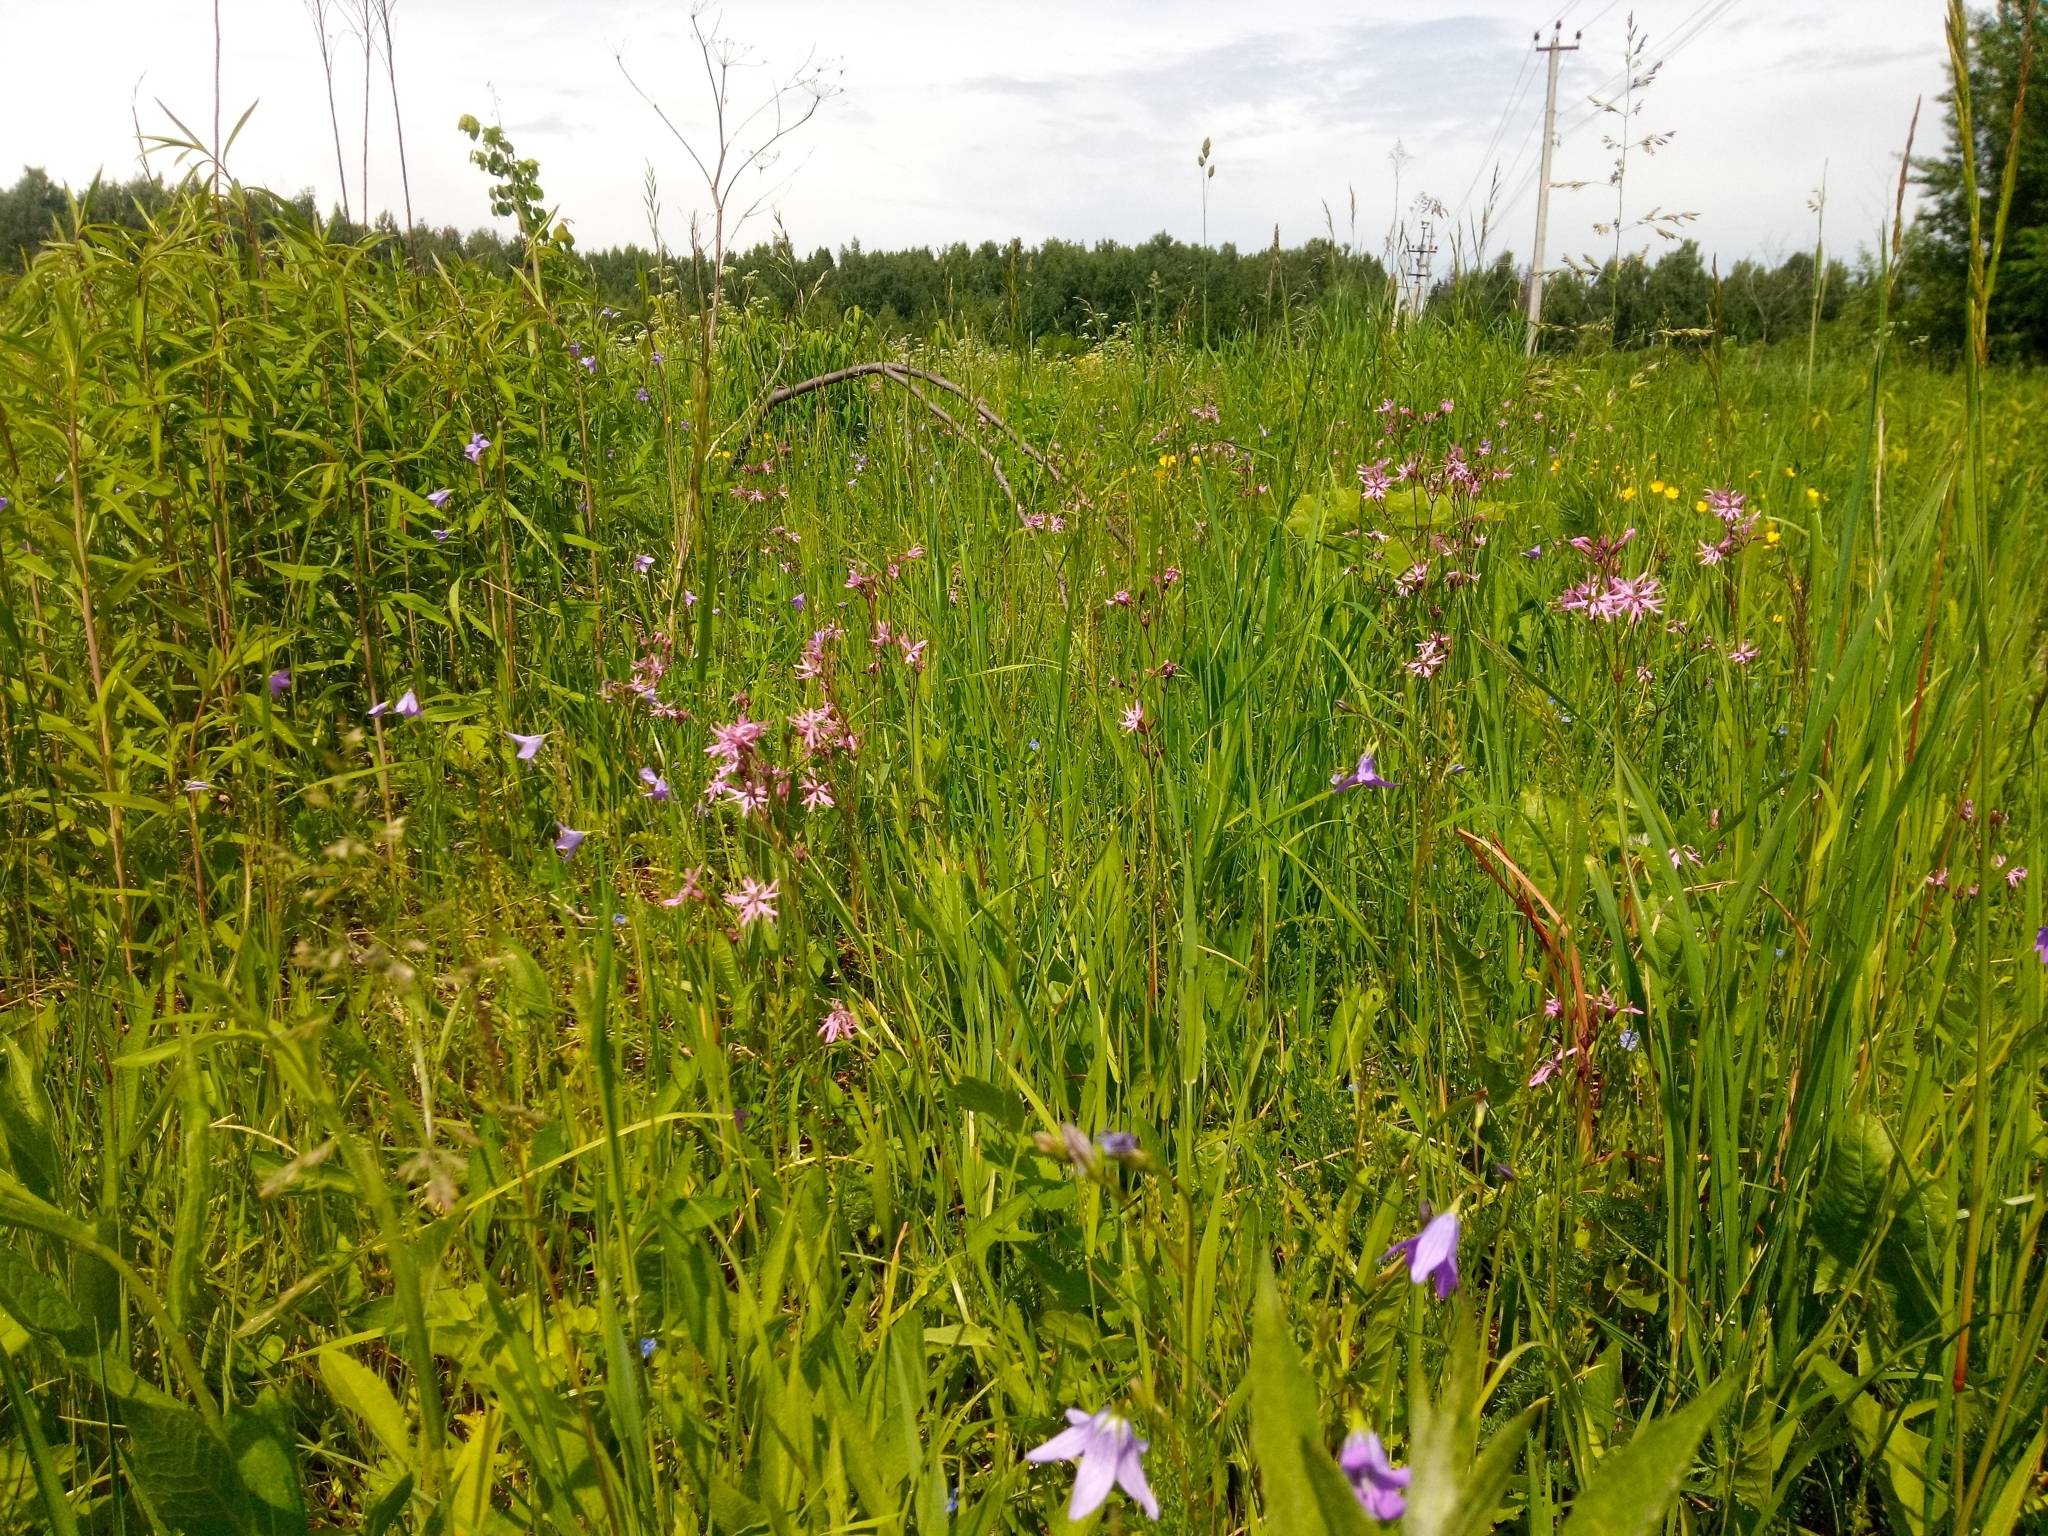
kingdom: Plantae
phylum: Tracheophyta
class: Magnoliopsida
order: Caryophyllales
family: Caryophyllaceae
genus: Silene
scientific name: Silene flos-cuculi
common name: Ragged-robin
